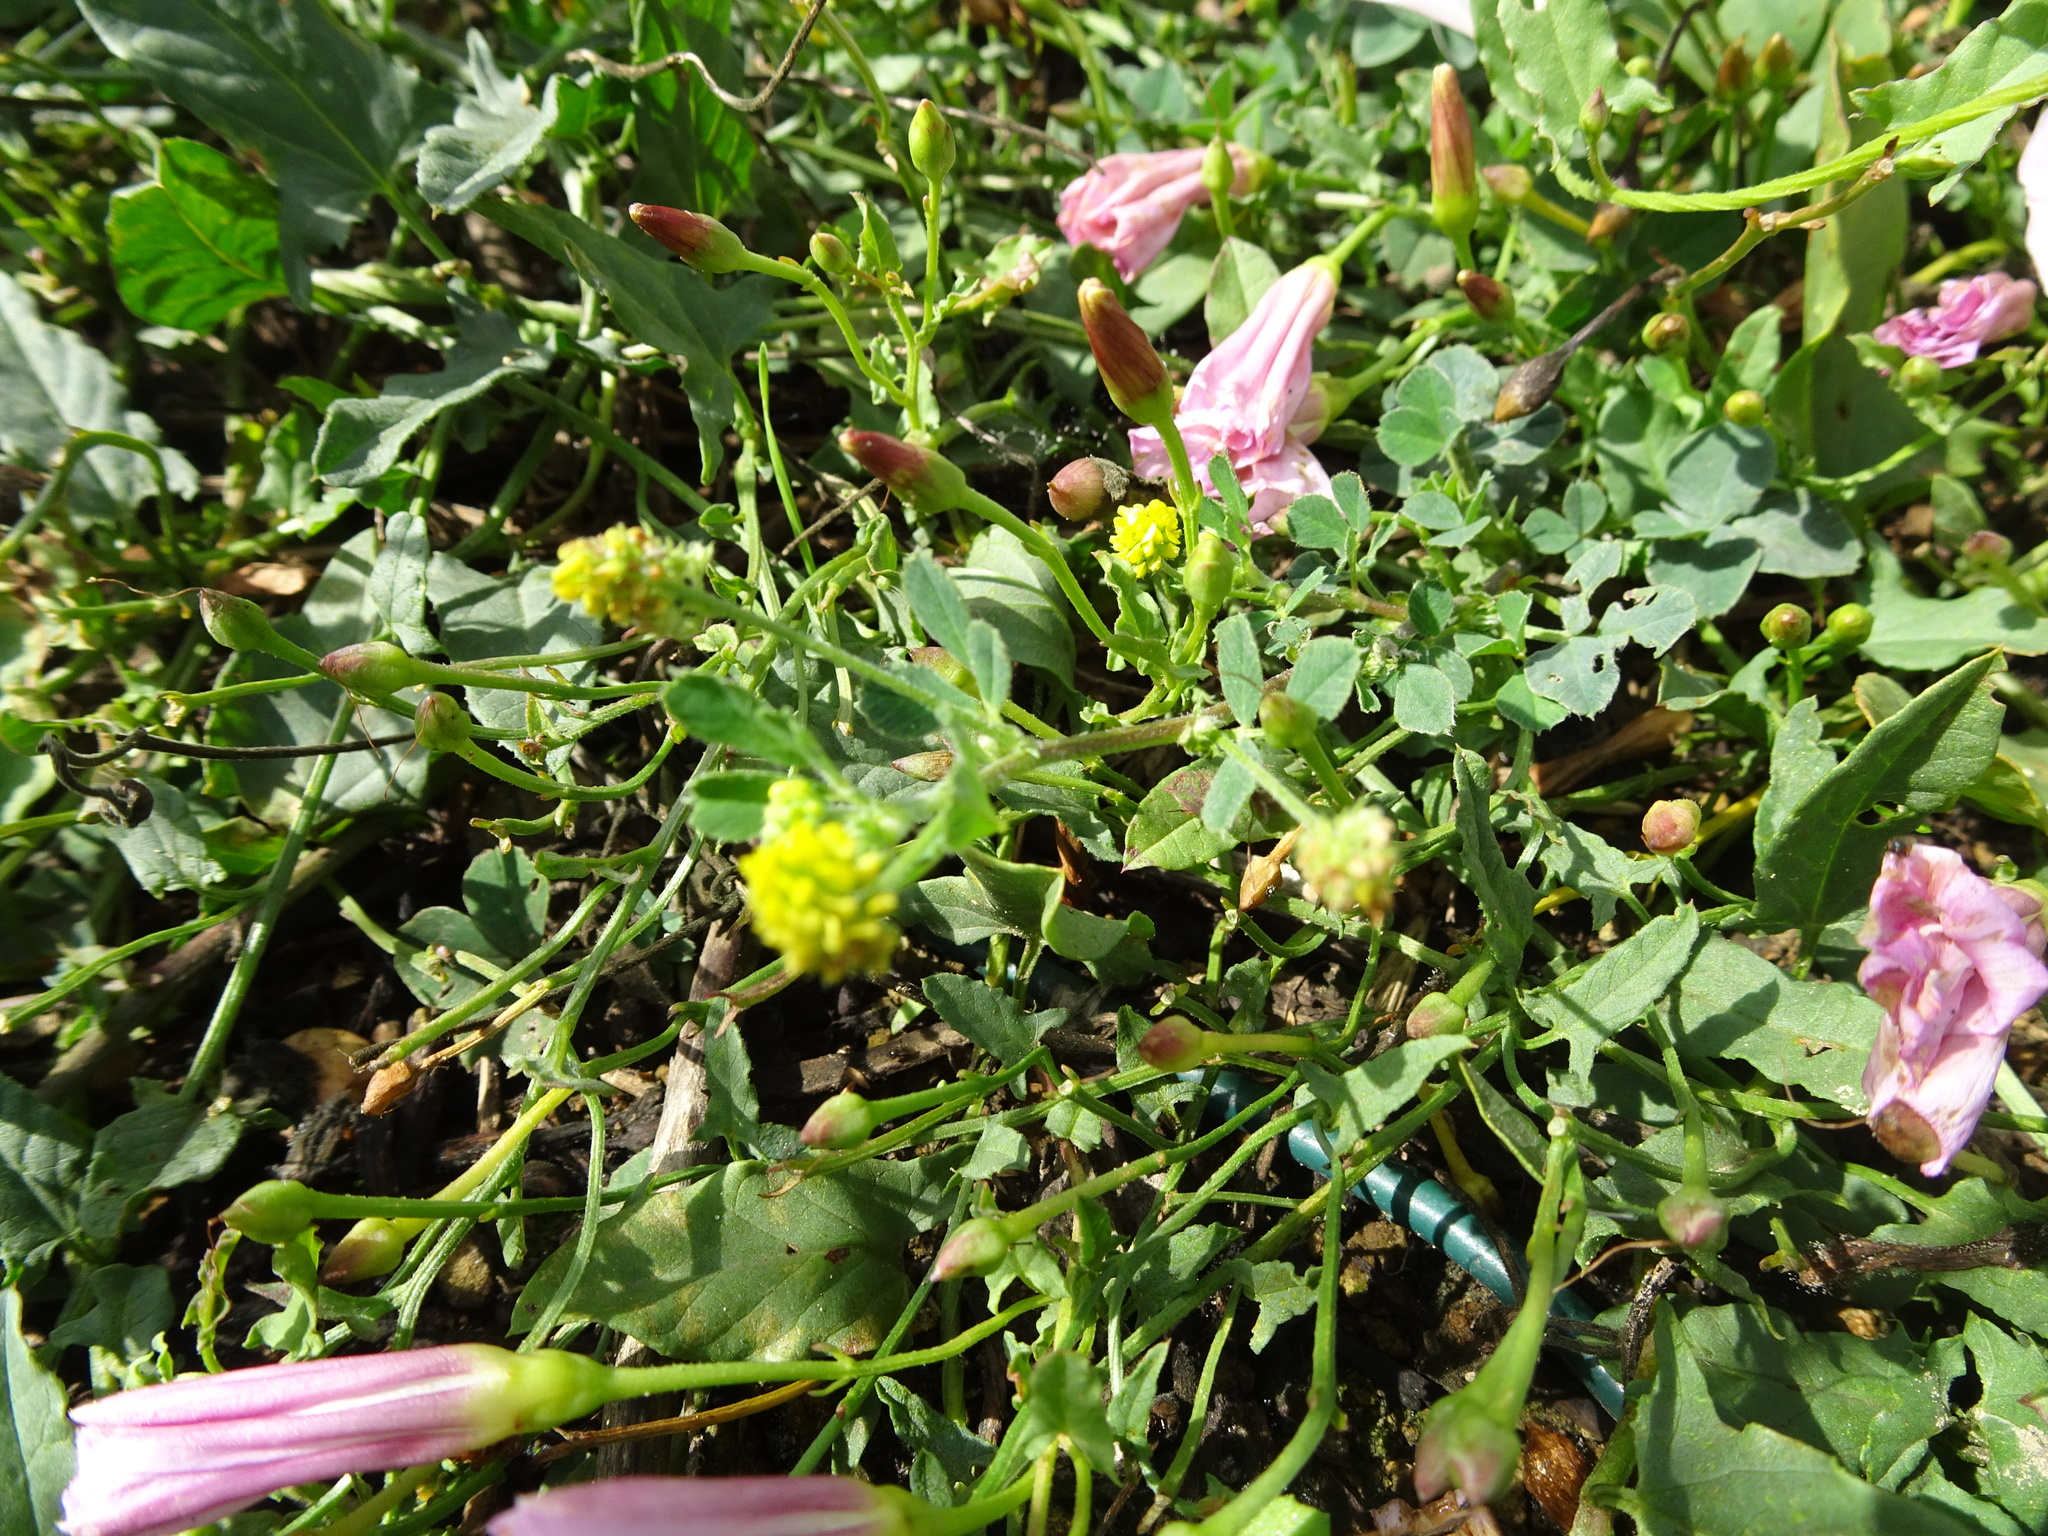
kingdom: Plantae
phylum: Tracheophyta
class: Magnoliopsida
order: Fabales
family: Fabaceae
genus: Medicago
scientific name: Medicago lupulina
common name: Black medick
